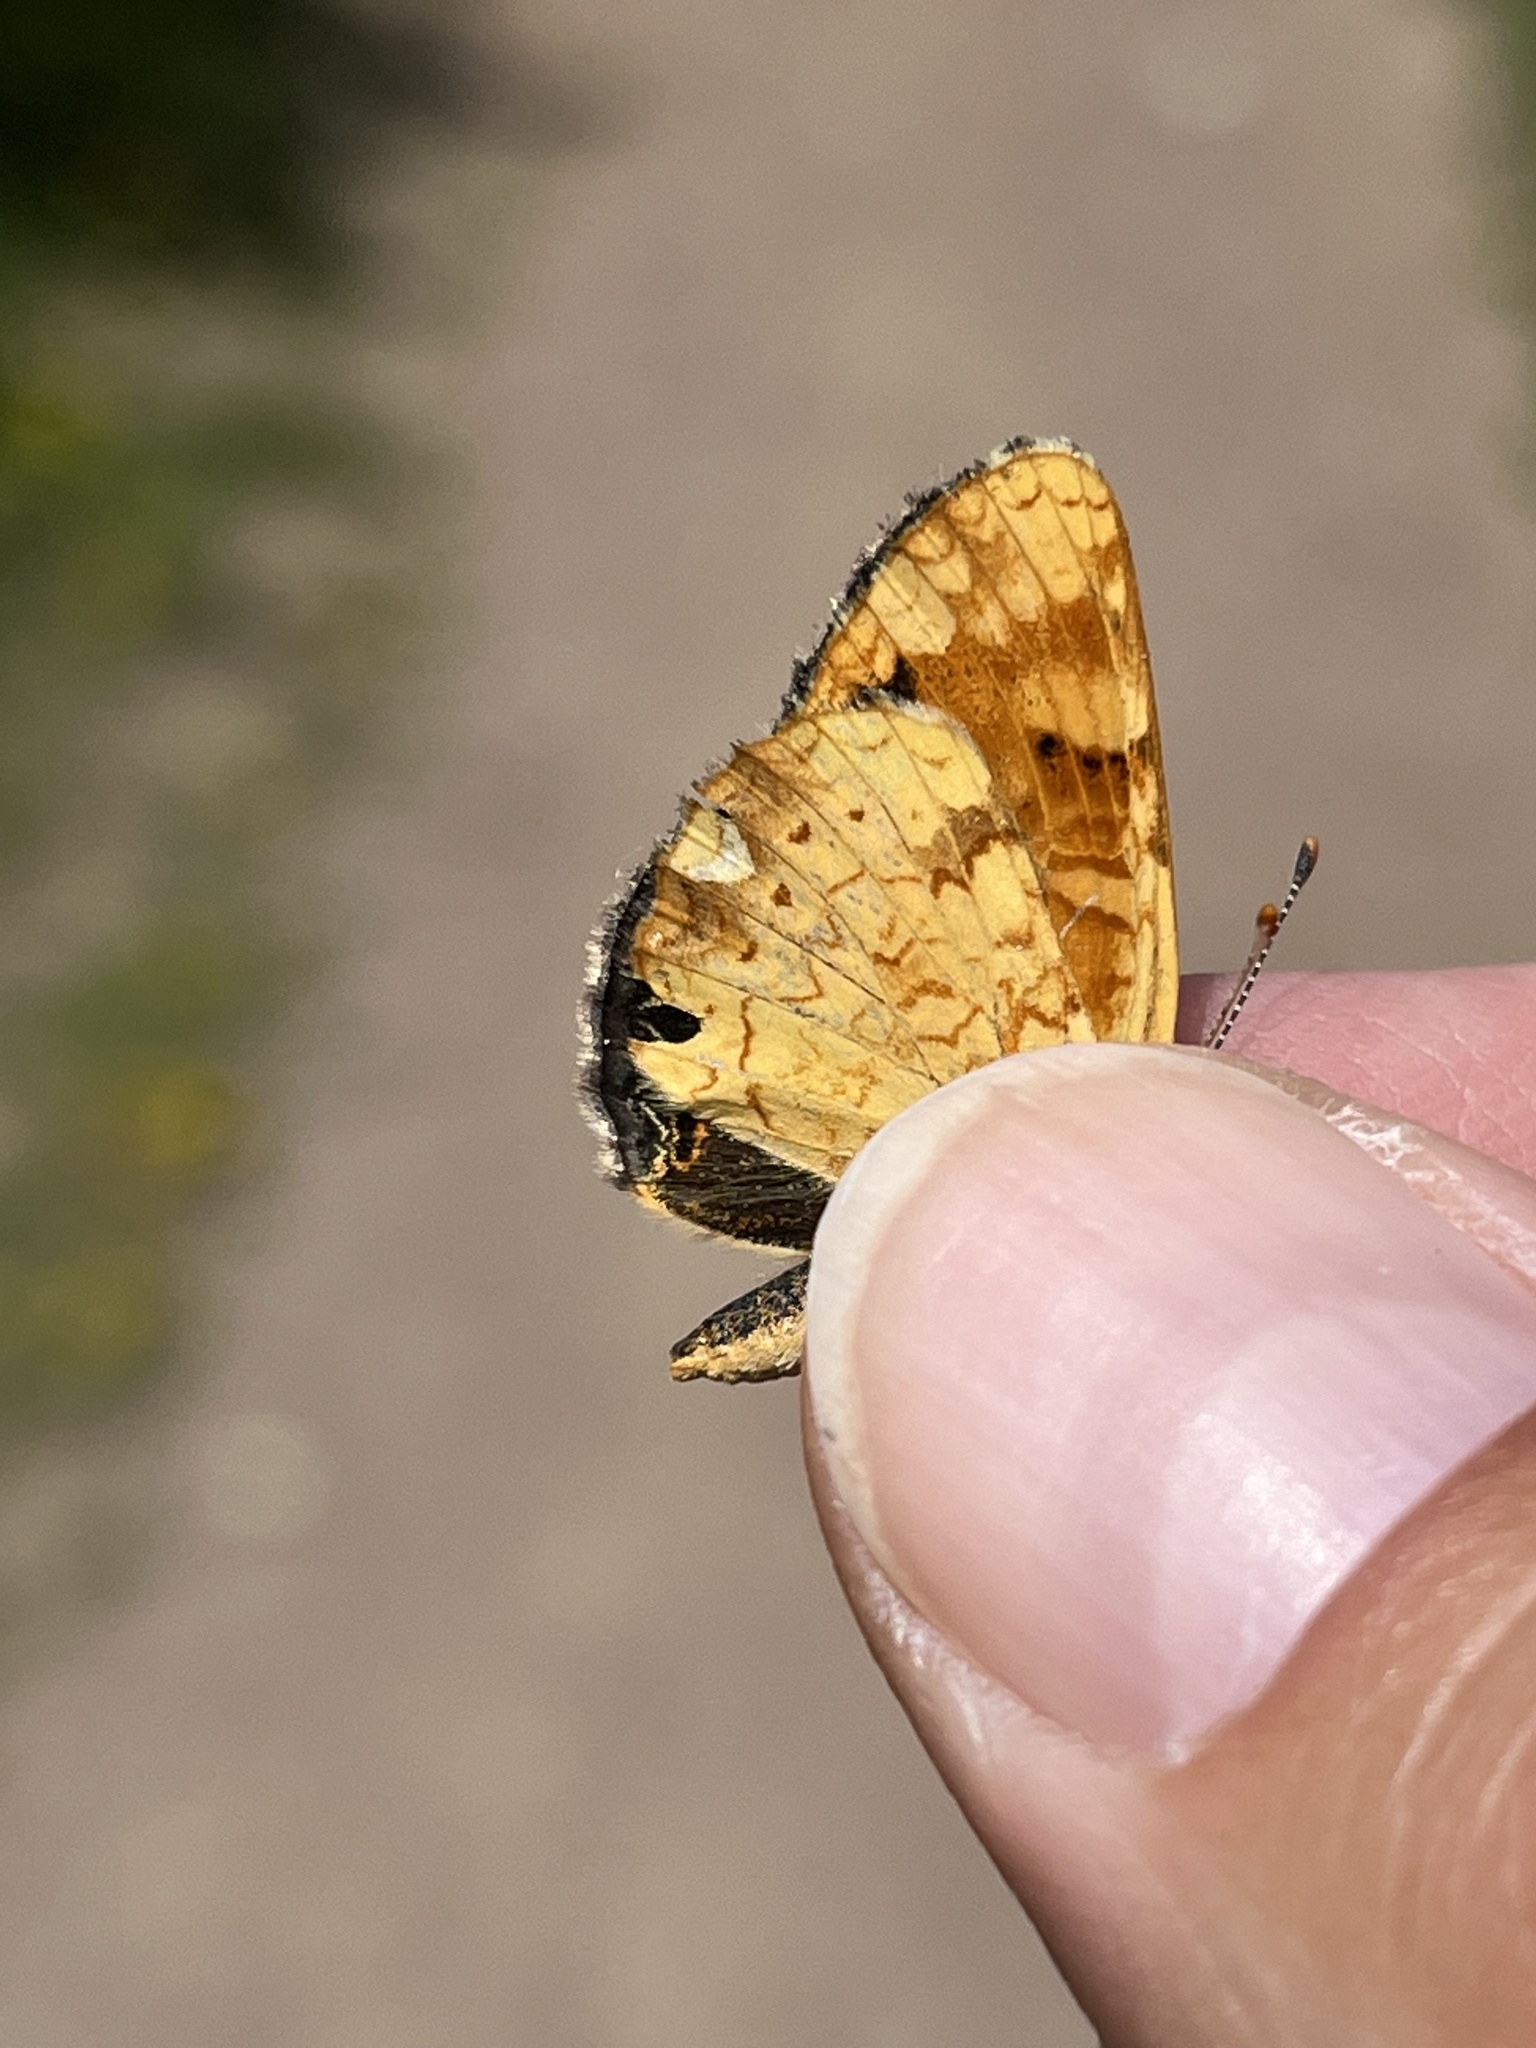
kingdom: Animalia
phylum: Arthropoda
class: Insecta
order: Lepidoptera
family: Nymphalidae
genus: Phyciodes
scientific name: Phyciodes tharos
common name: Pearl crescent
